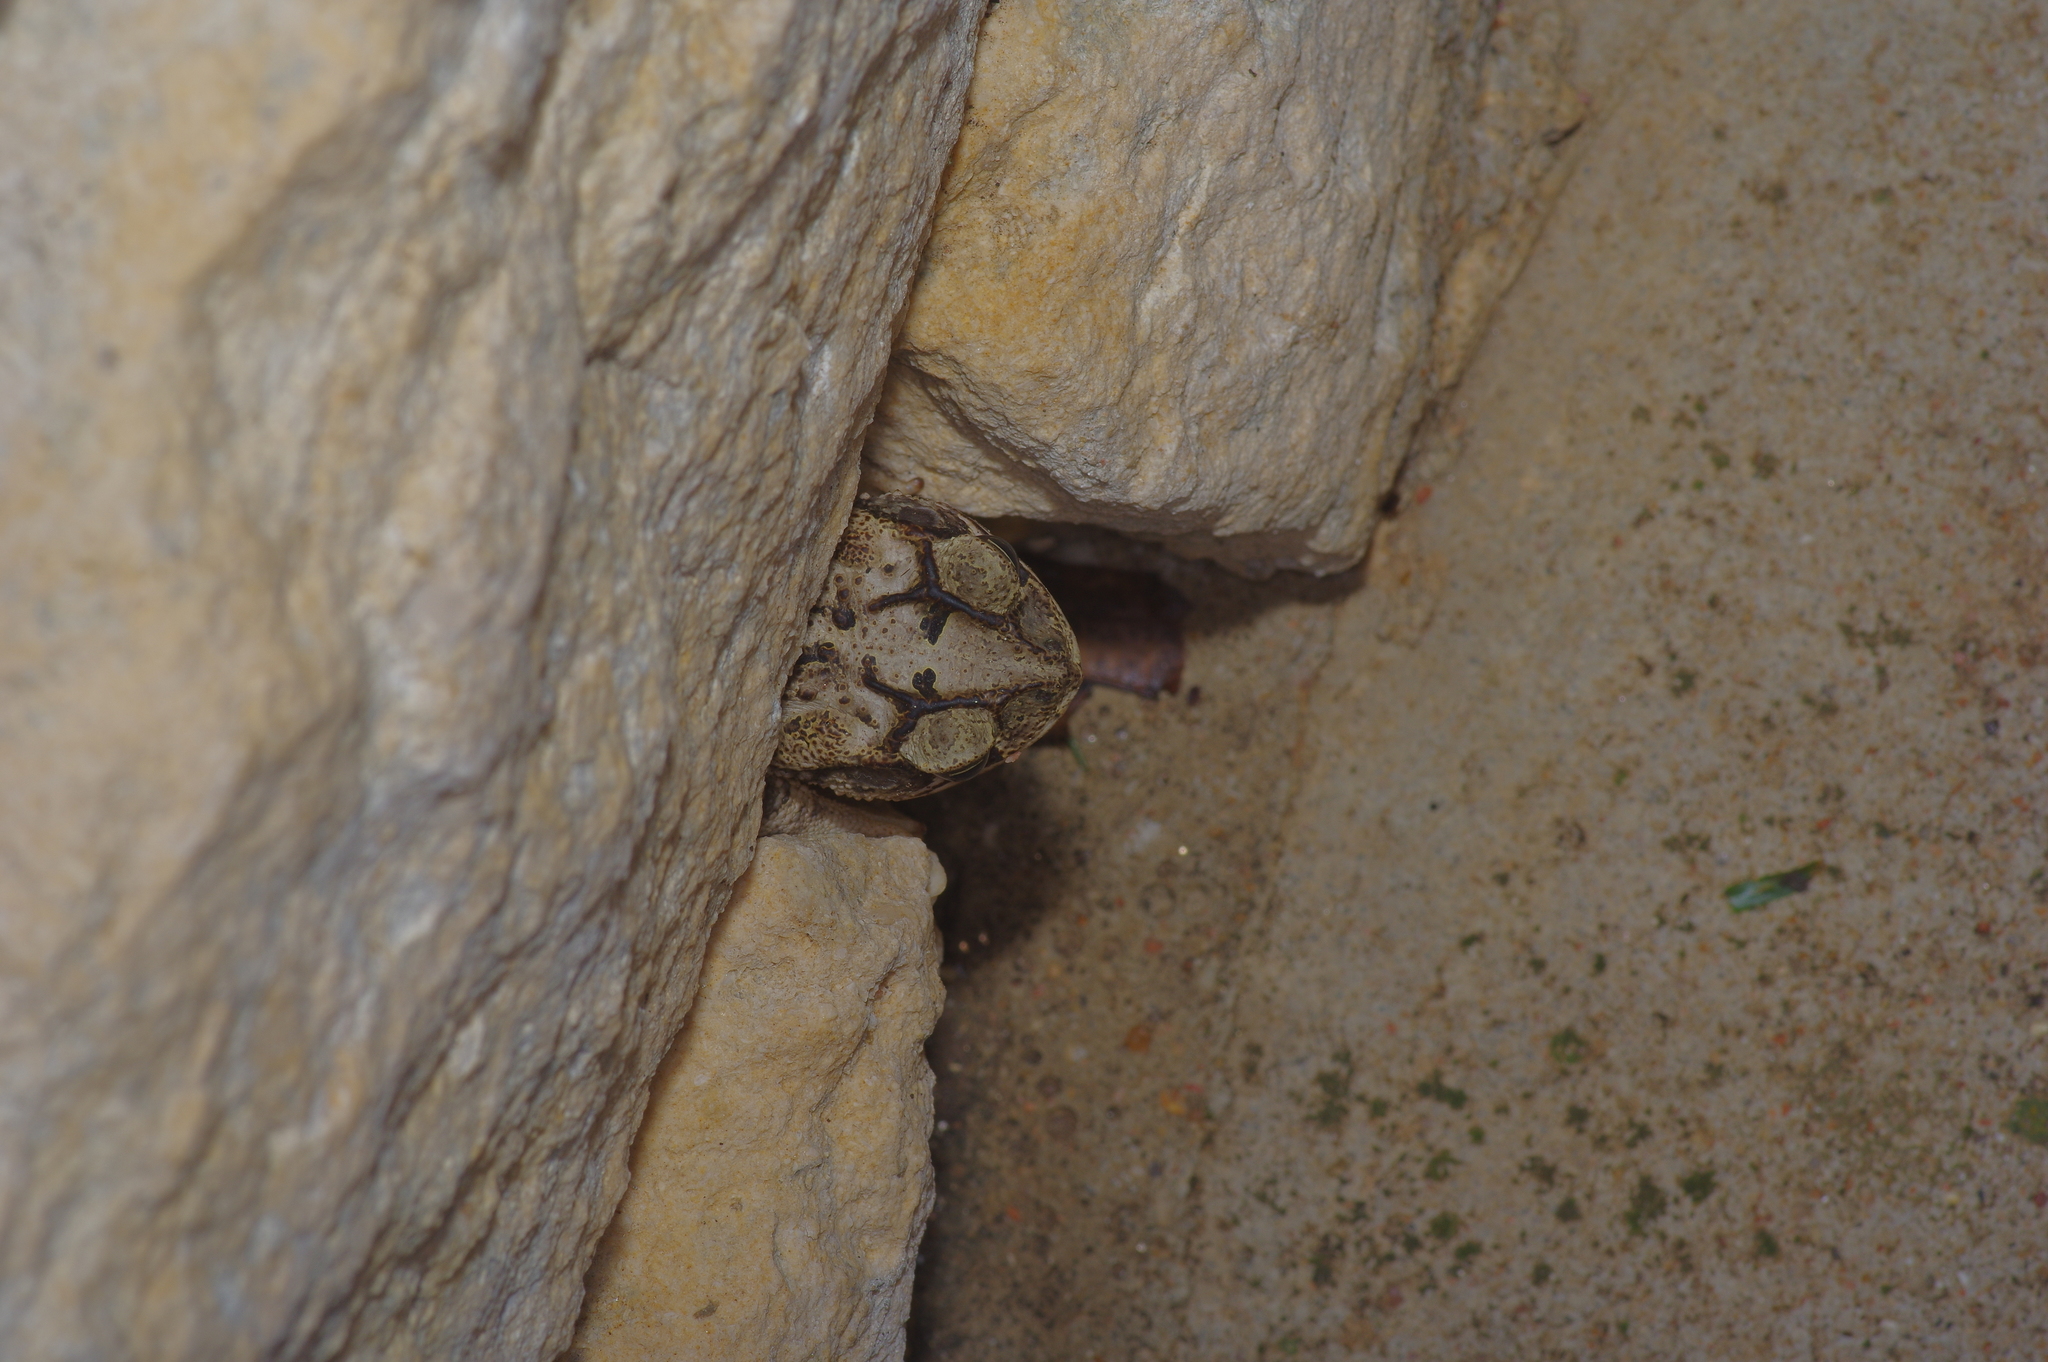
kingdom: Animalia
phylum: Chordata
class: Amphibia
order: Anura
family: Bufonidae
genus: Incilius
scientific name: Incilius nebulifer
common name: Gulf coast toad
